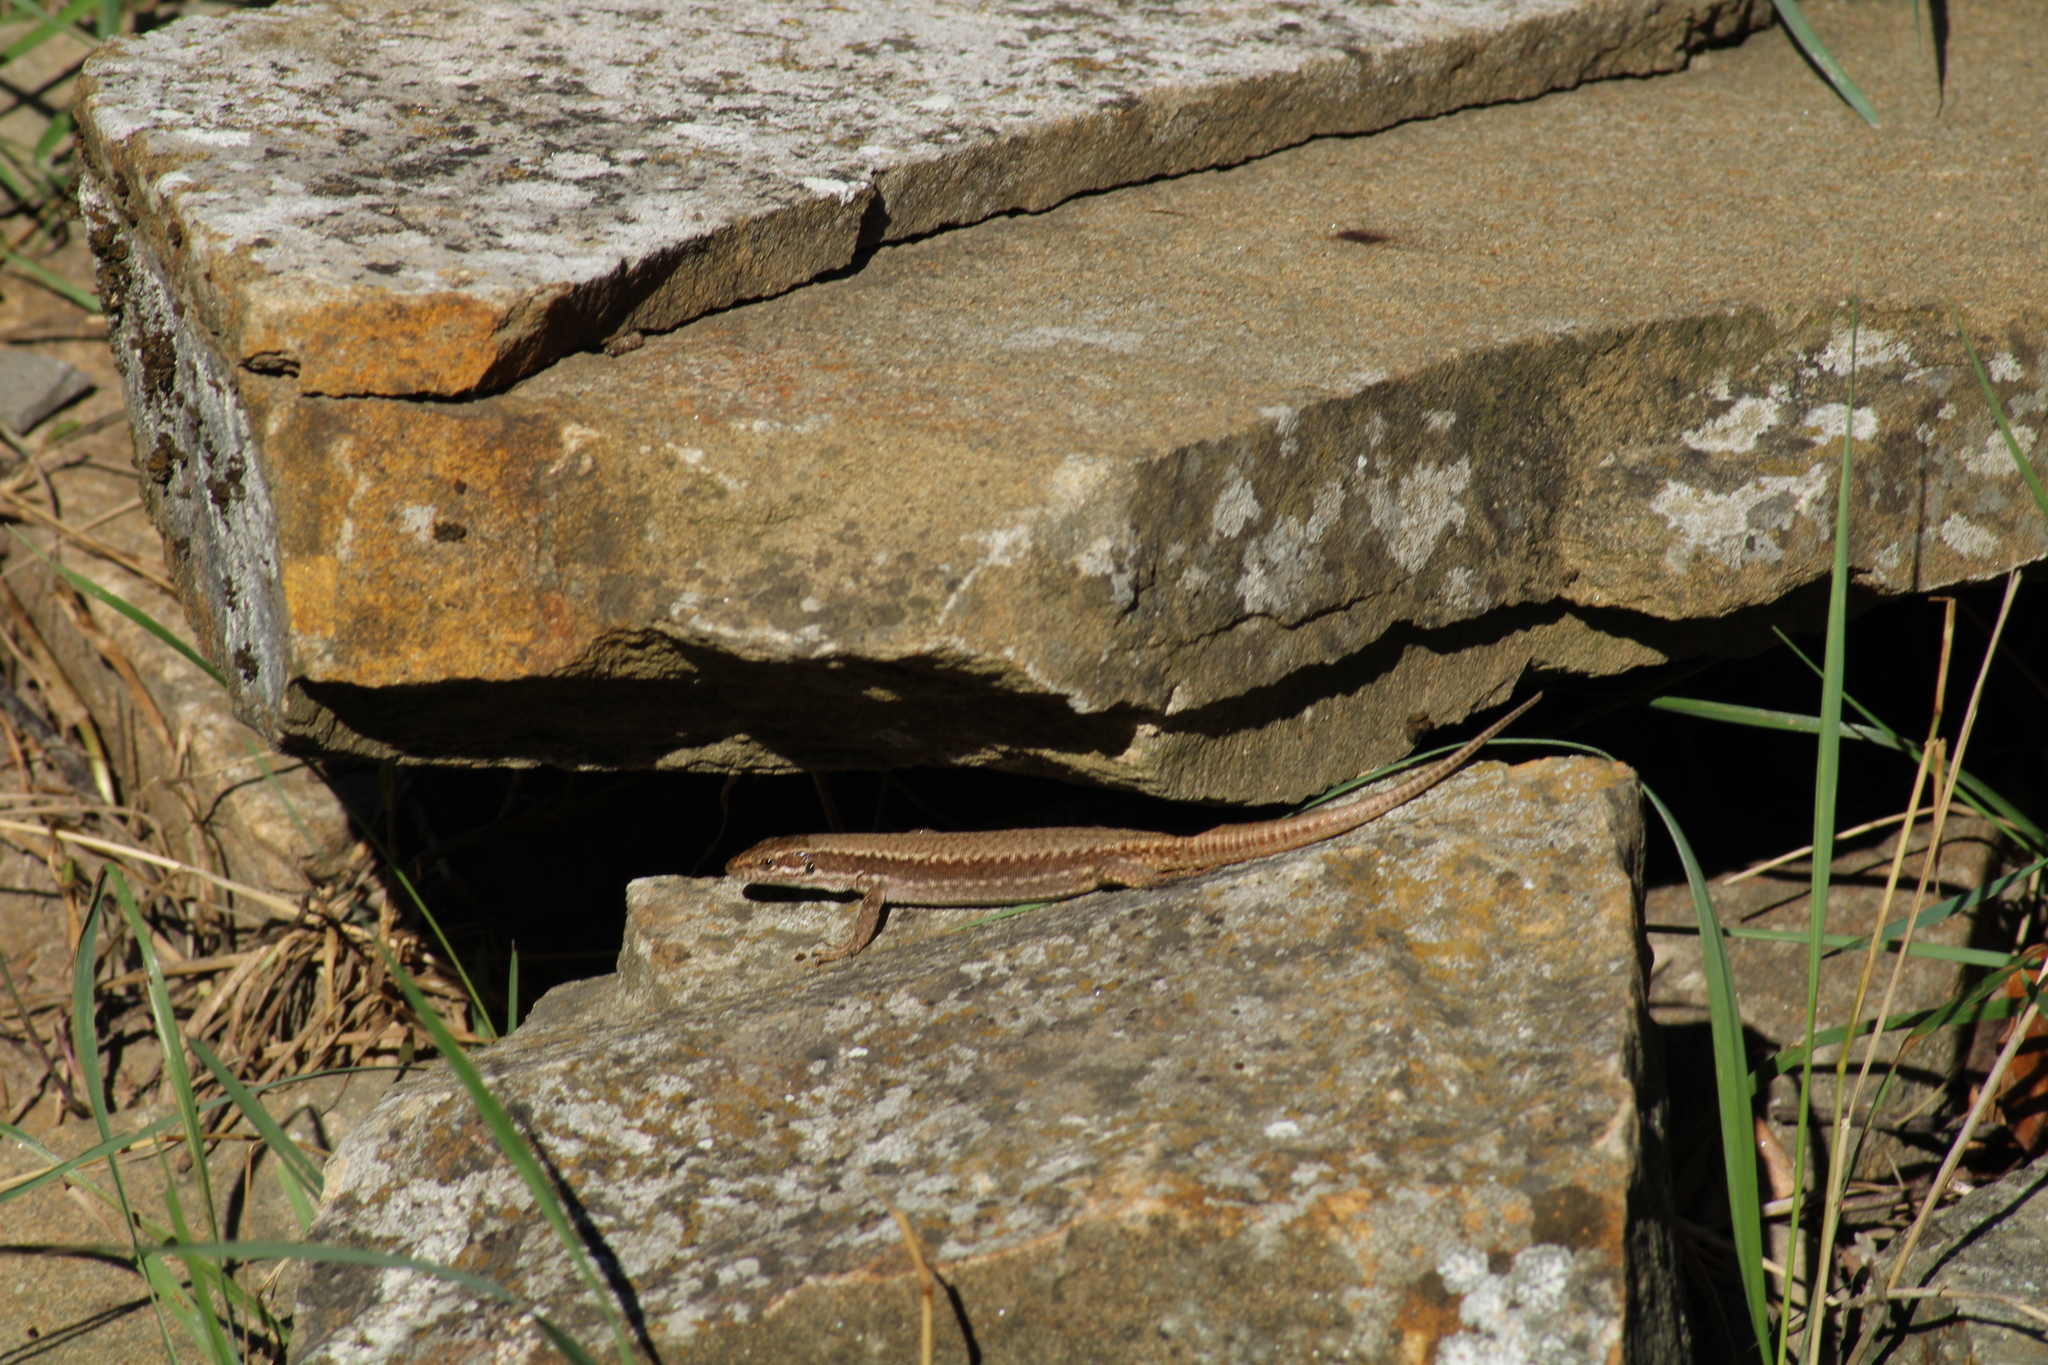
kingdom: Animalia
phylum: Chordata
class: Squamata
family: Lacertidae
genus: Podarcis
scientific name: Podarcis muralis
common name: Common wall lizard
